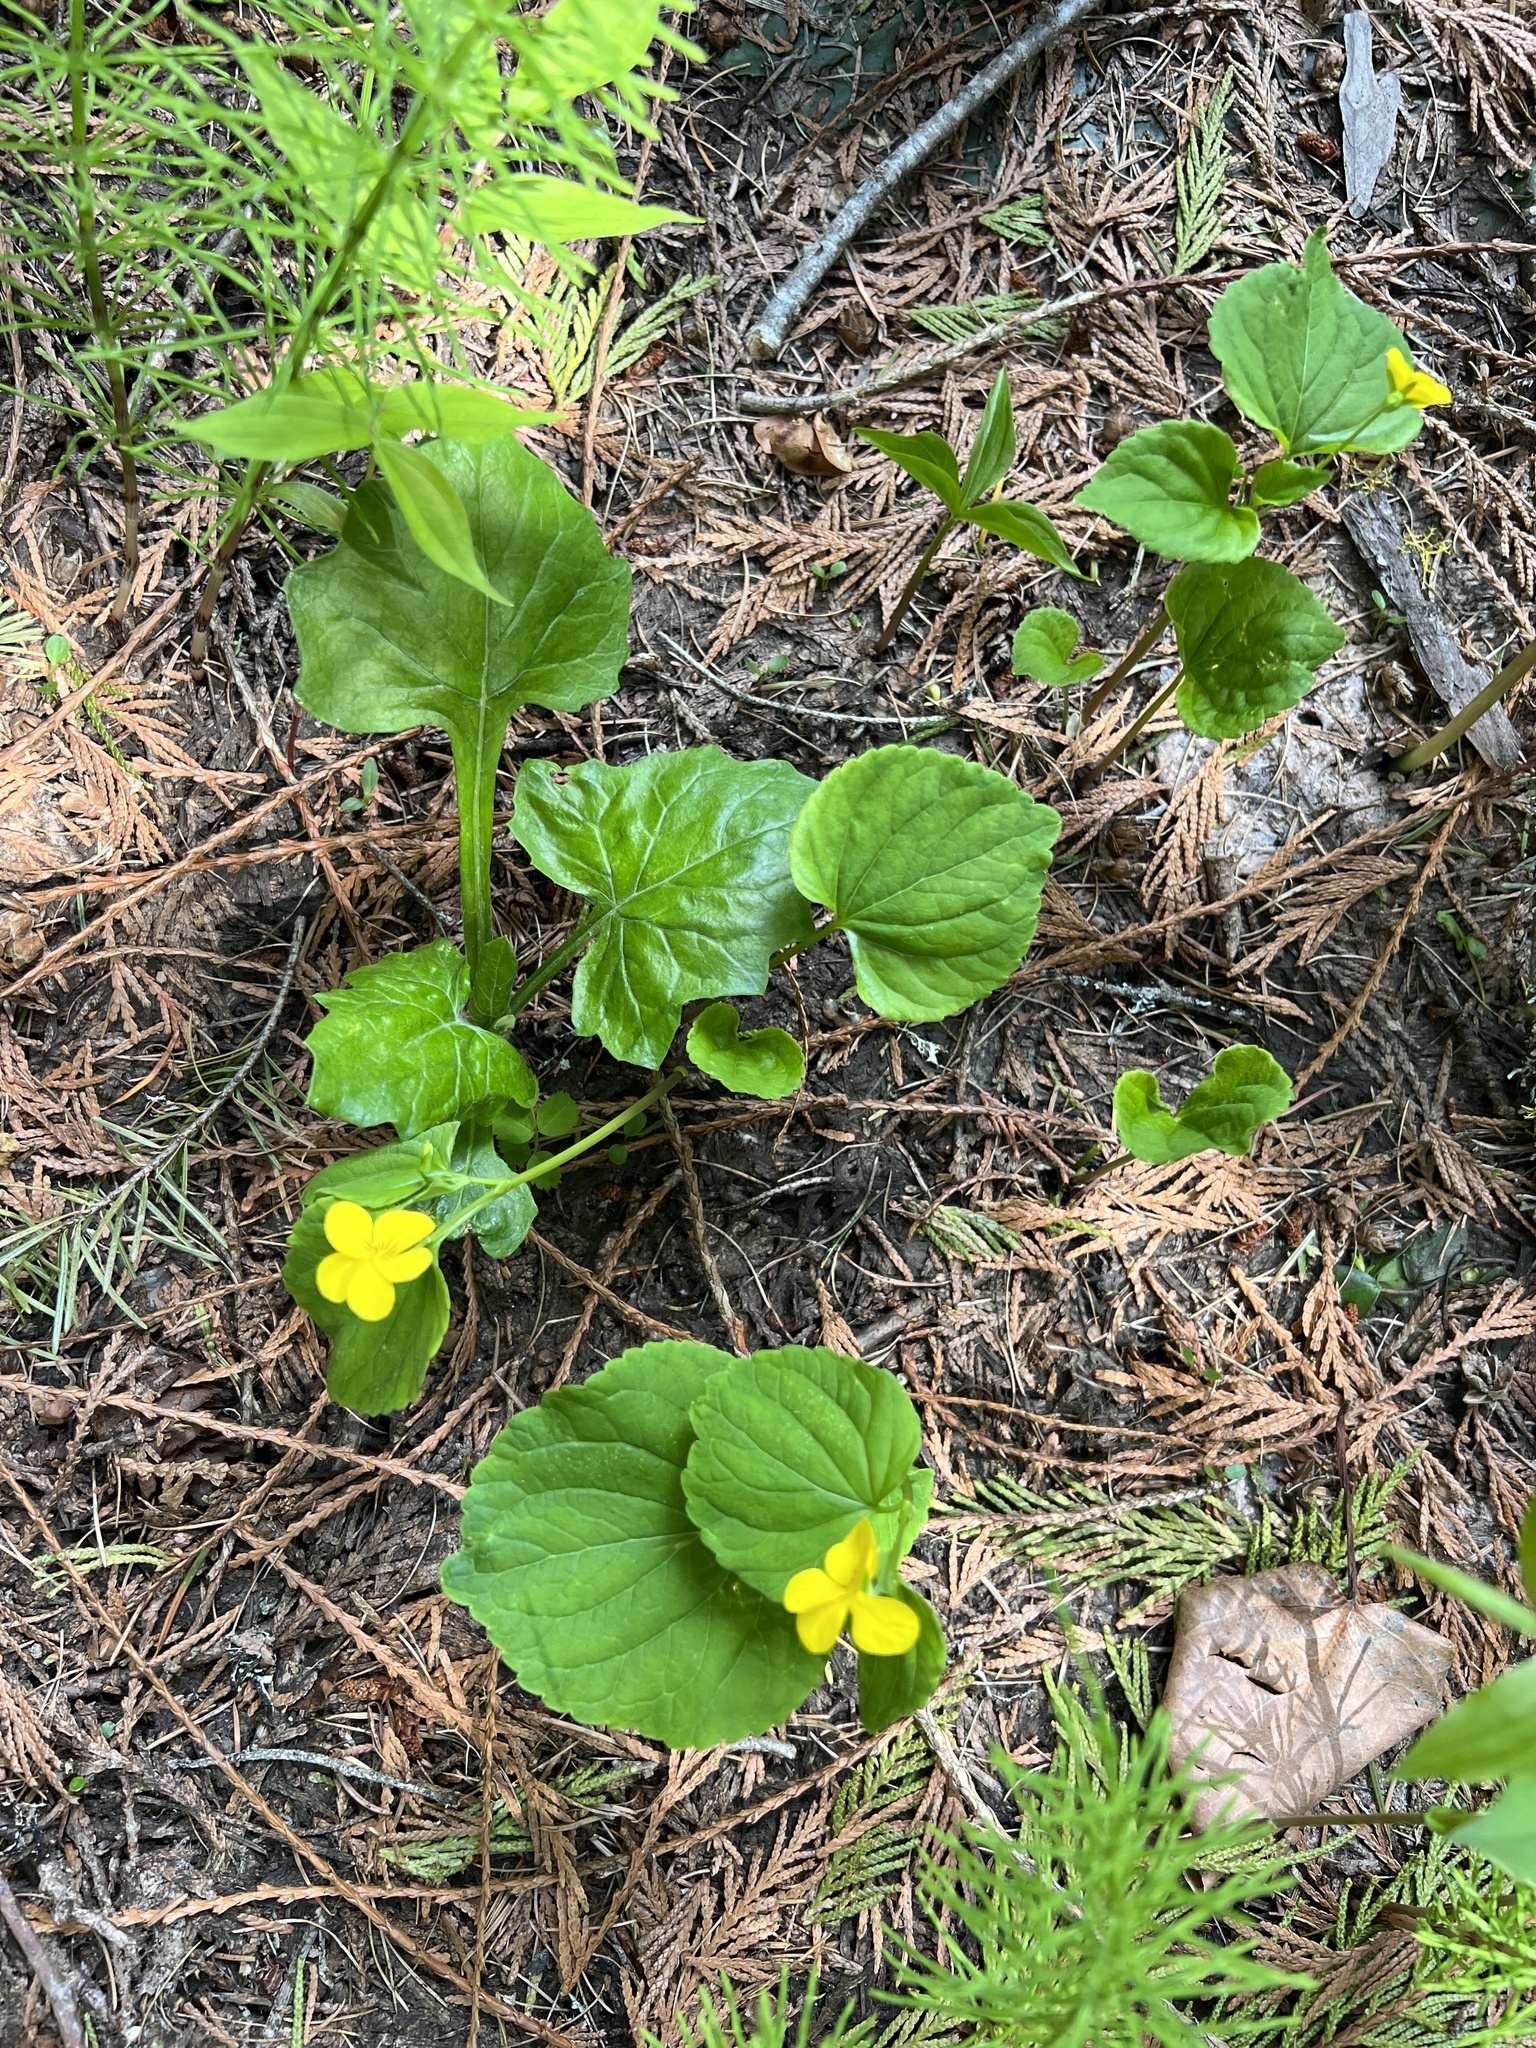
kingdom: Plantae
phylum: Tracheophyta
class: Magnoliopsida
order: Malpighiales
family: Violaceae
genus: Viola
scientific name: Viola glabella
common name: Stream violet
